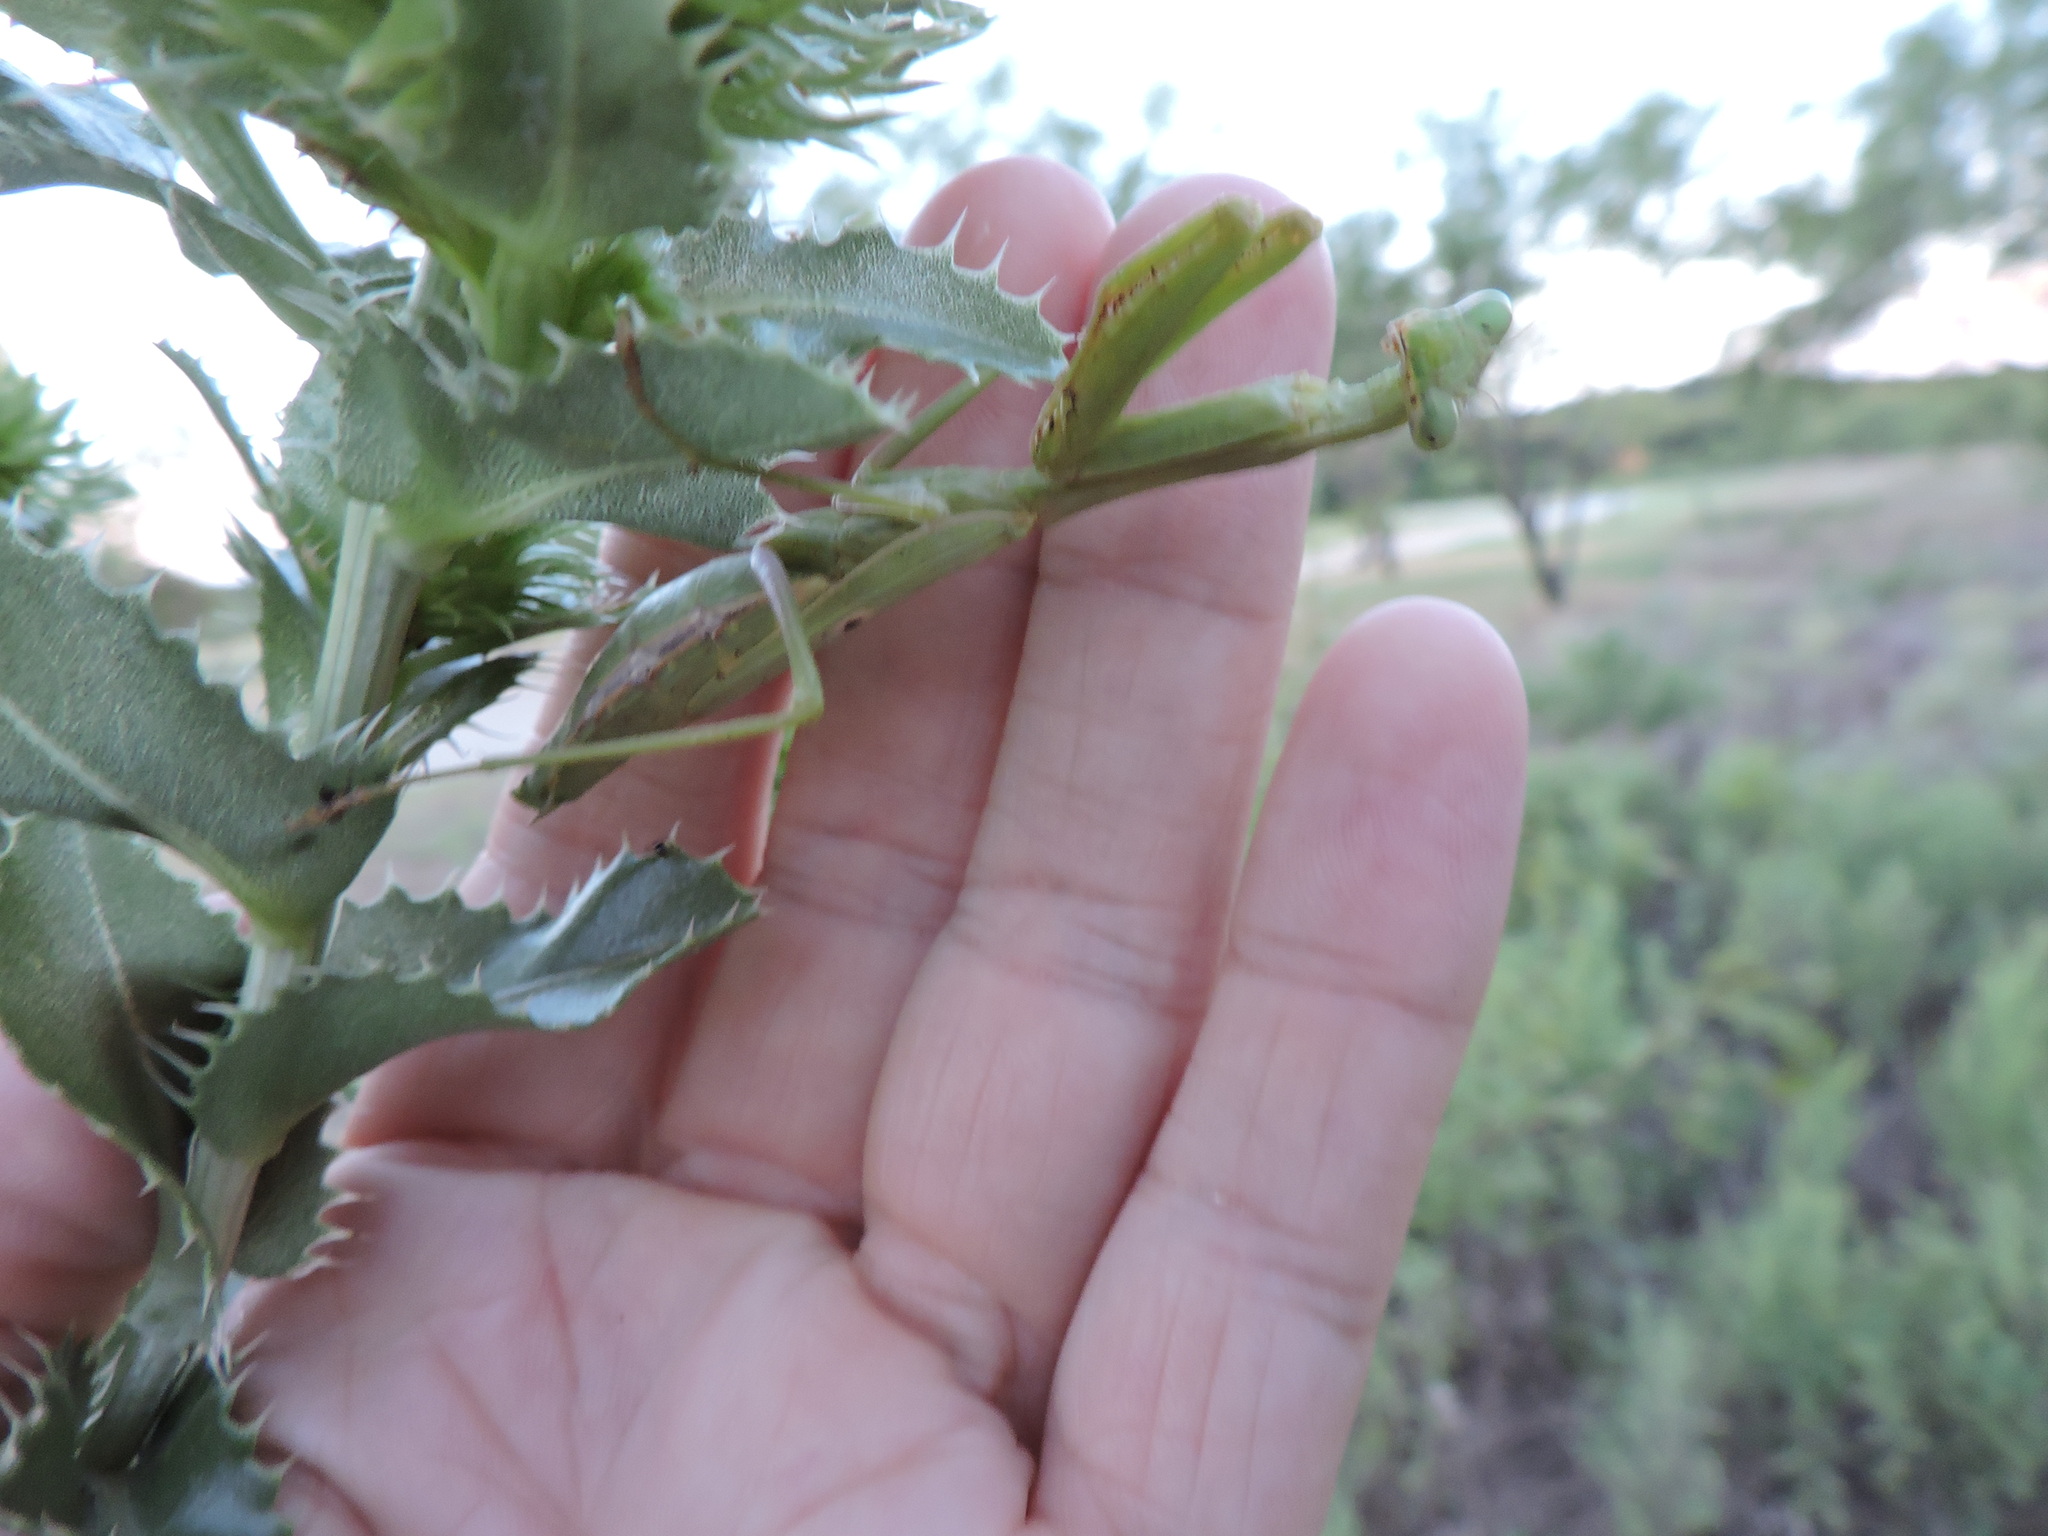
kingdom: Animalia
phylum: Arthropoda
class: Insecta
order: Mantodea
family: Mantidae
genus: Stagmomantis
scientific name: Stagmomantis carolina
